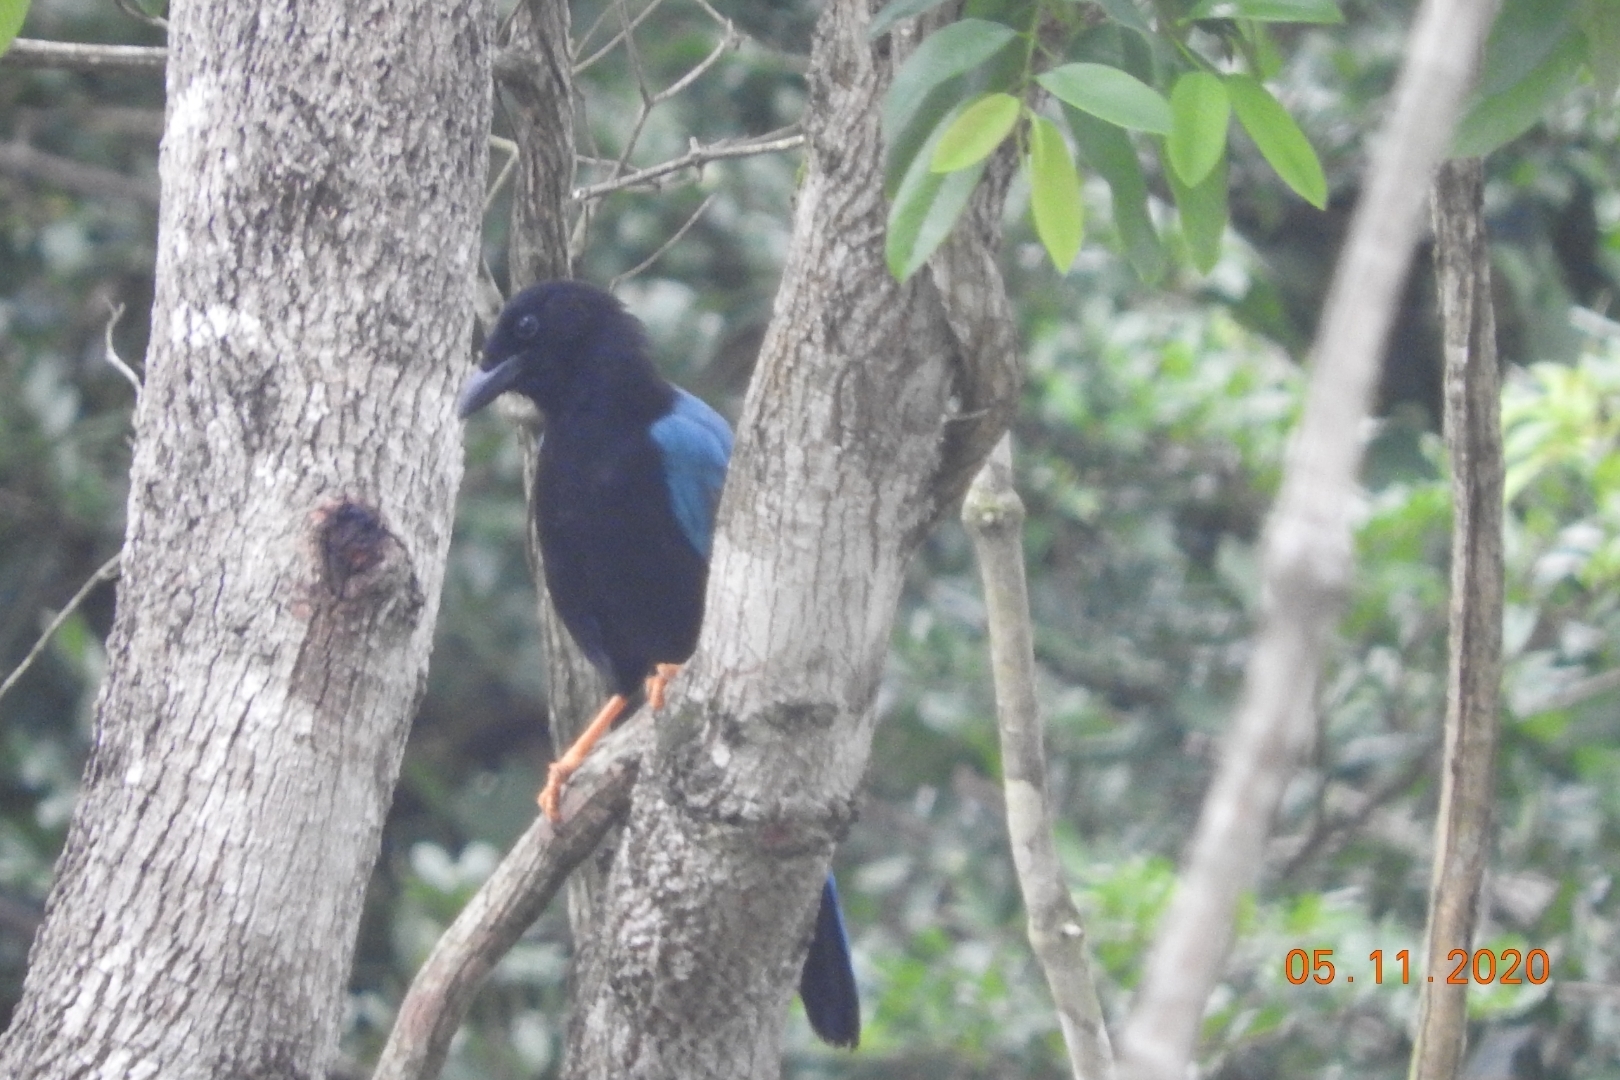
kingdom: Animalia
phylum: Chordata
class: Aves
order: Passeriformes
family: Corvidae
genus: Cyanocorax
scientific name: Cyanocorax yucatanicus
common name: Yucatan jay
